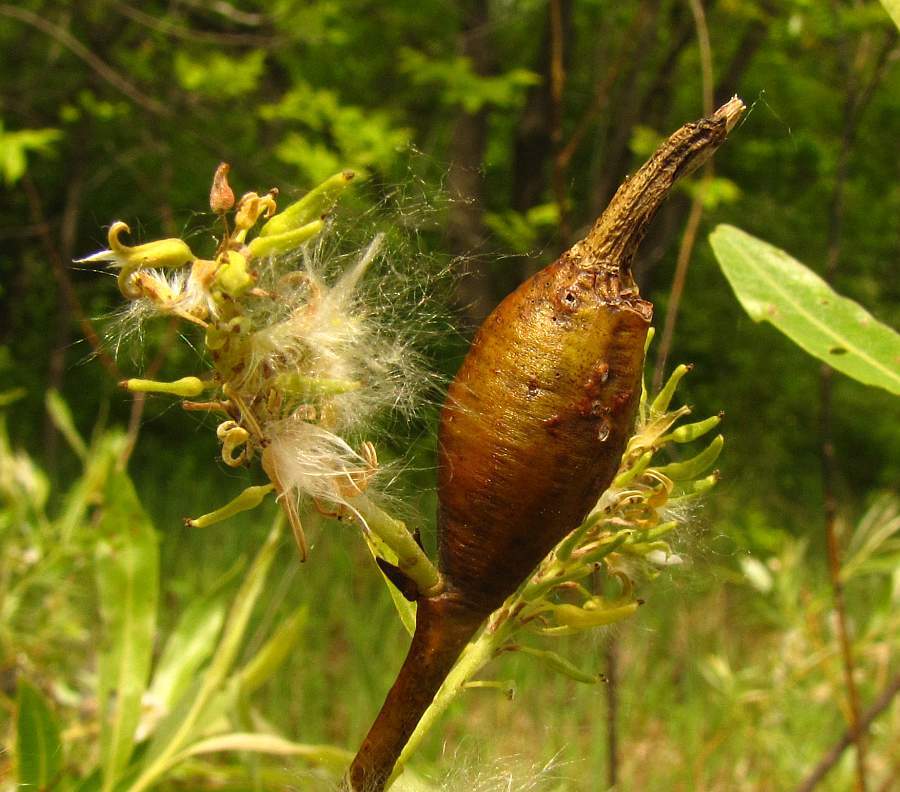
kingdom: Animalia
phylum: Arthropoda
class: Insecta
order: Diptera
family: Cecidomyiidae
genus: Thecodiplosis
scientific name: Thecodiplosis pinirigidae
